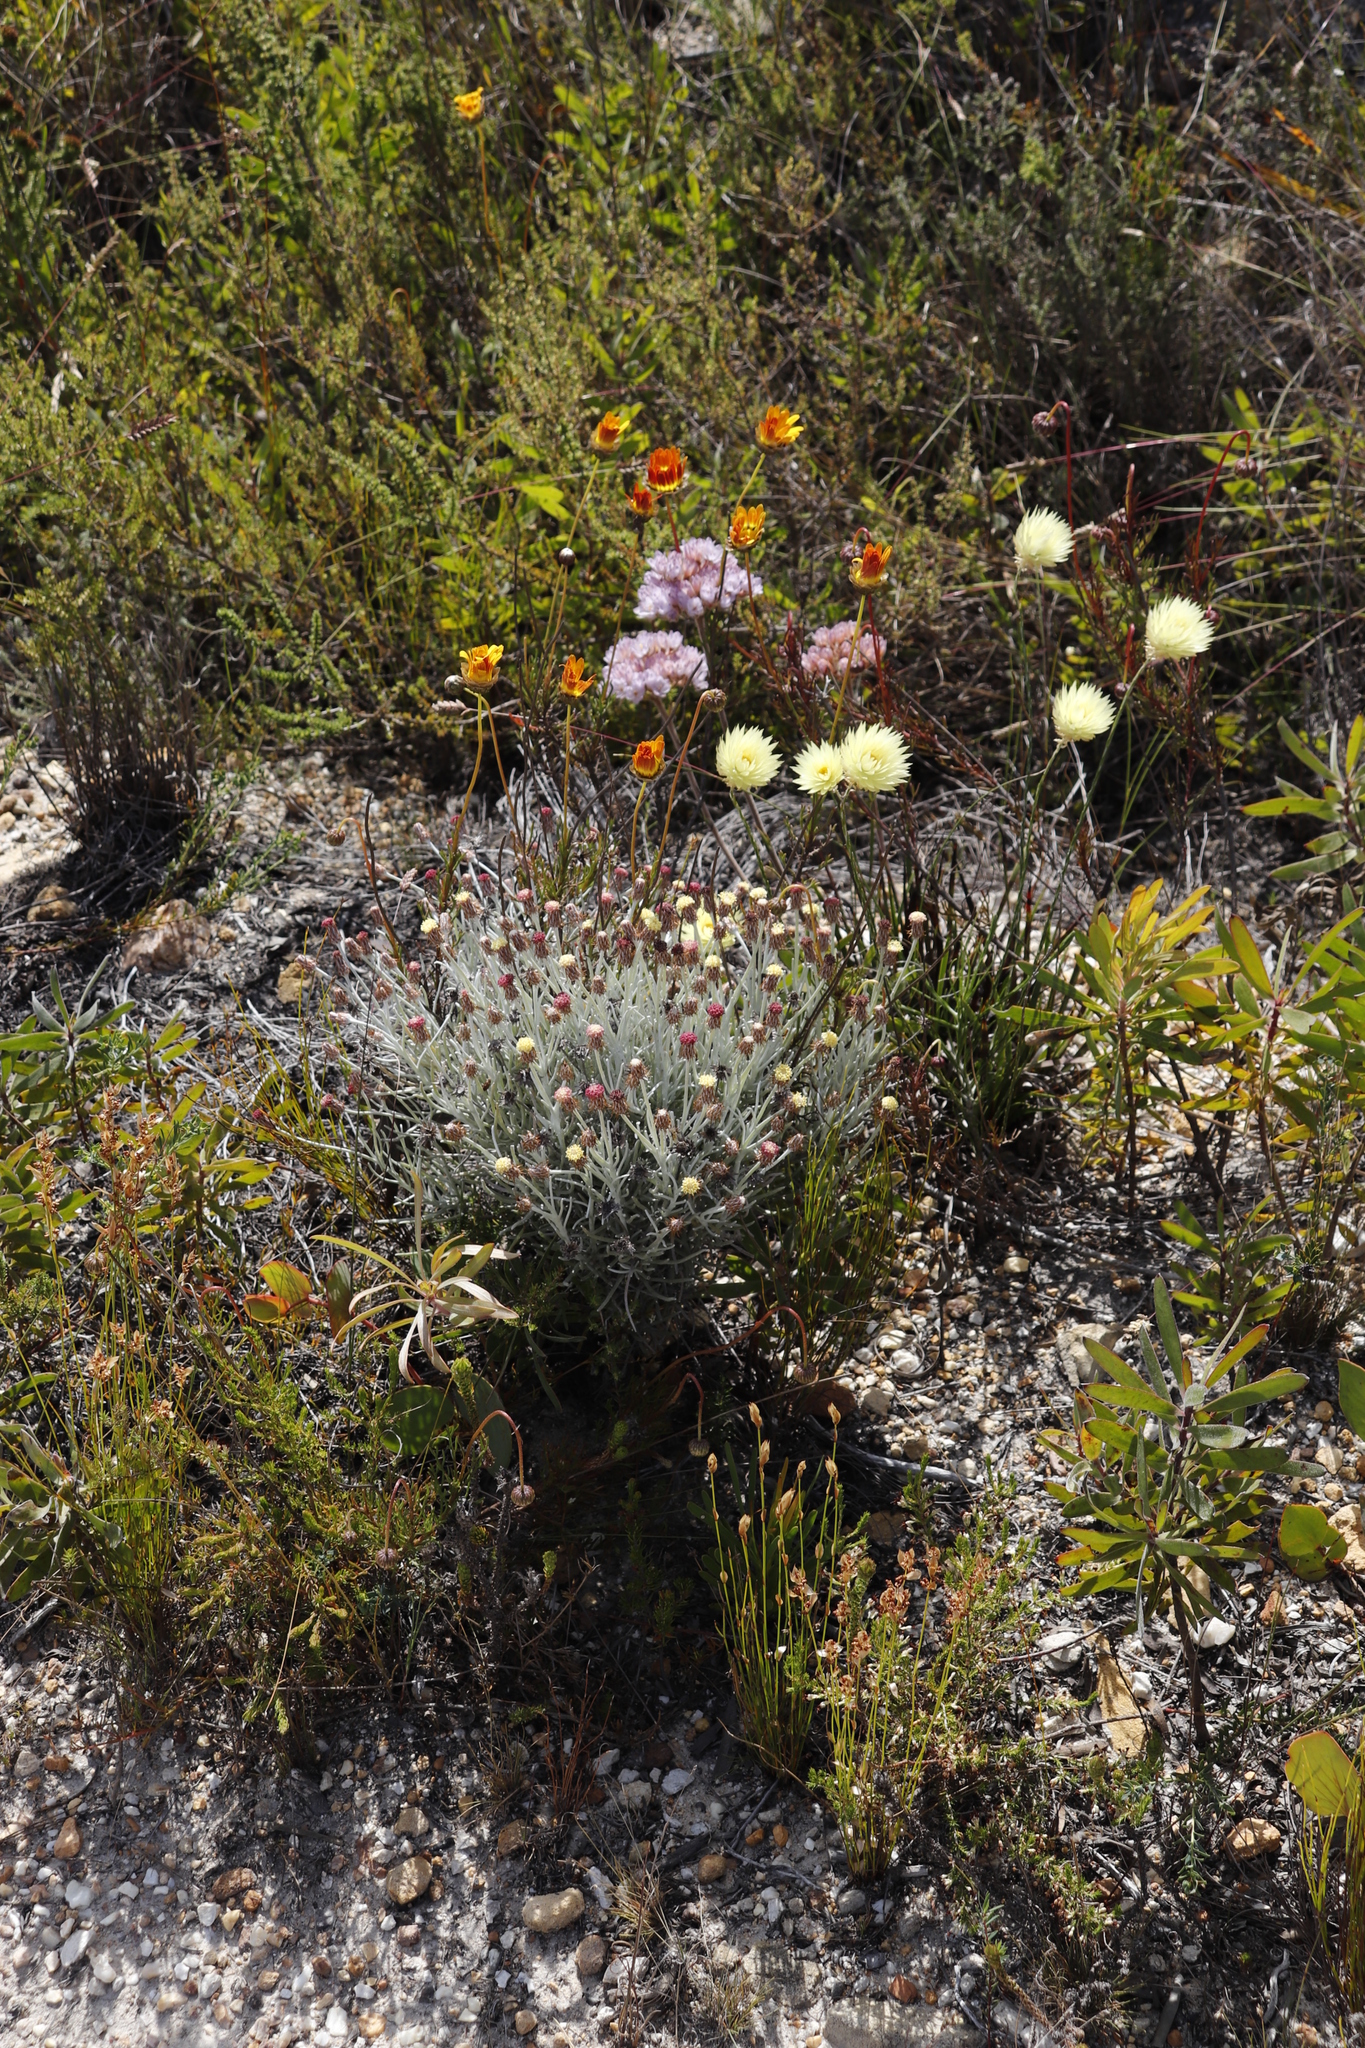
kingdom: Plantae
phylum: Tracheophyta
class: Magnoliopsida
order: Asterales
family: Asteraceae
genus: Edmondia
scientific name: Edmondia sesamoides
